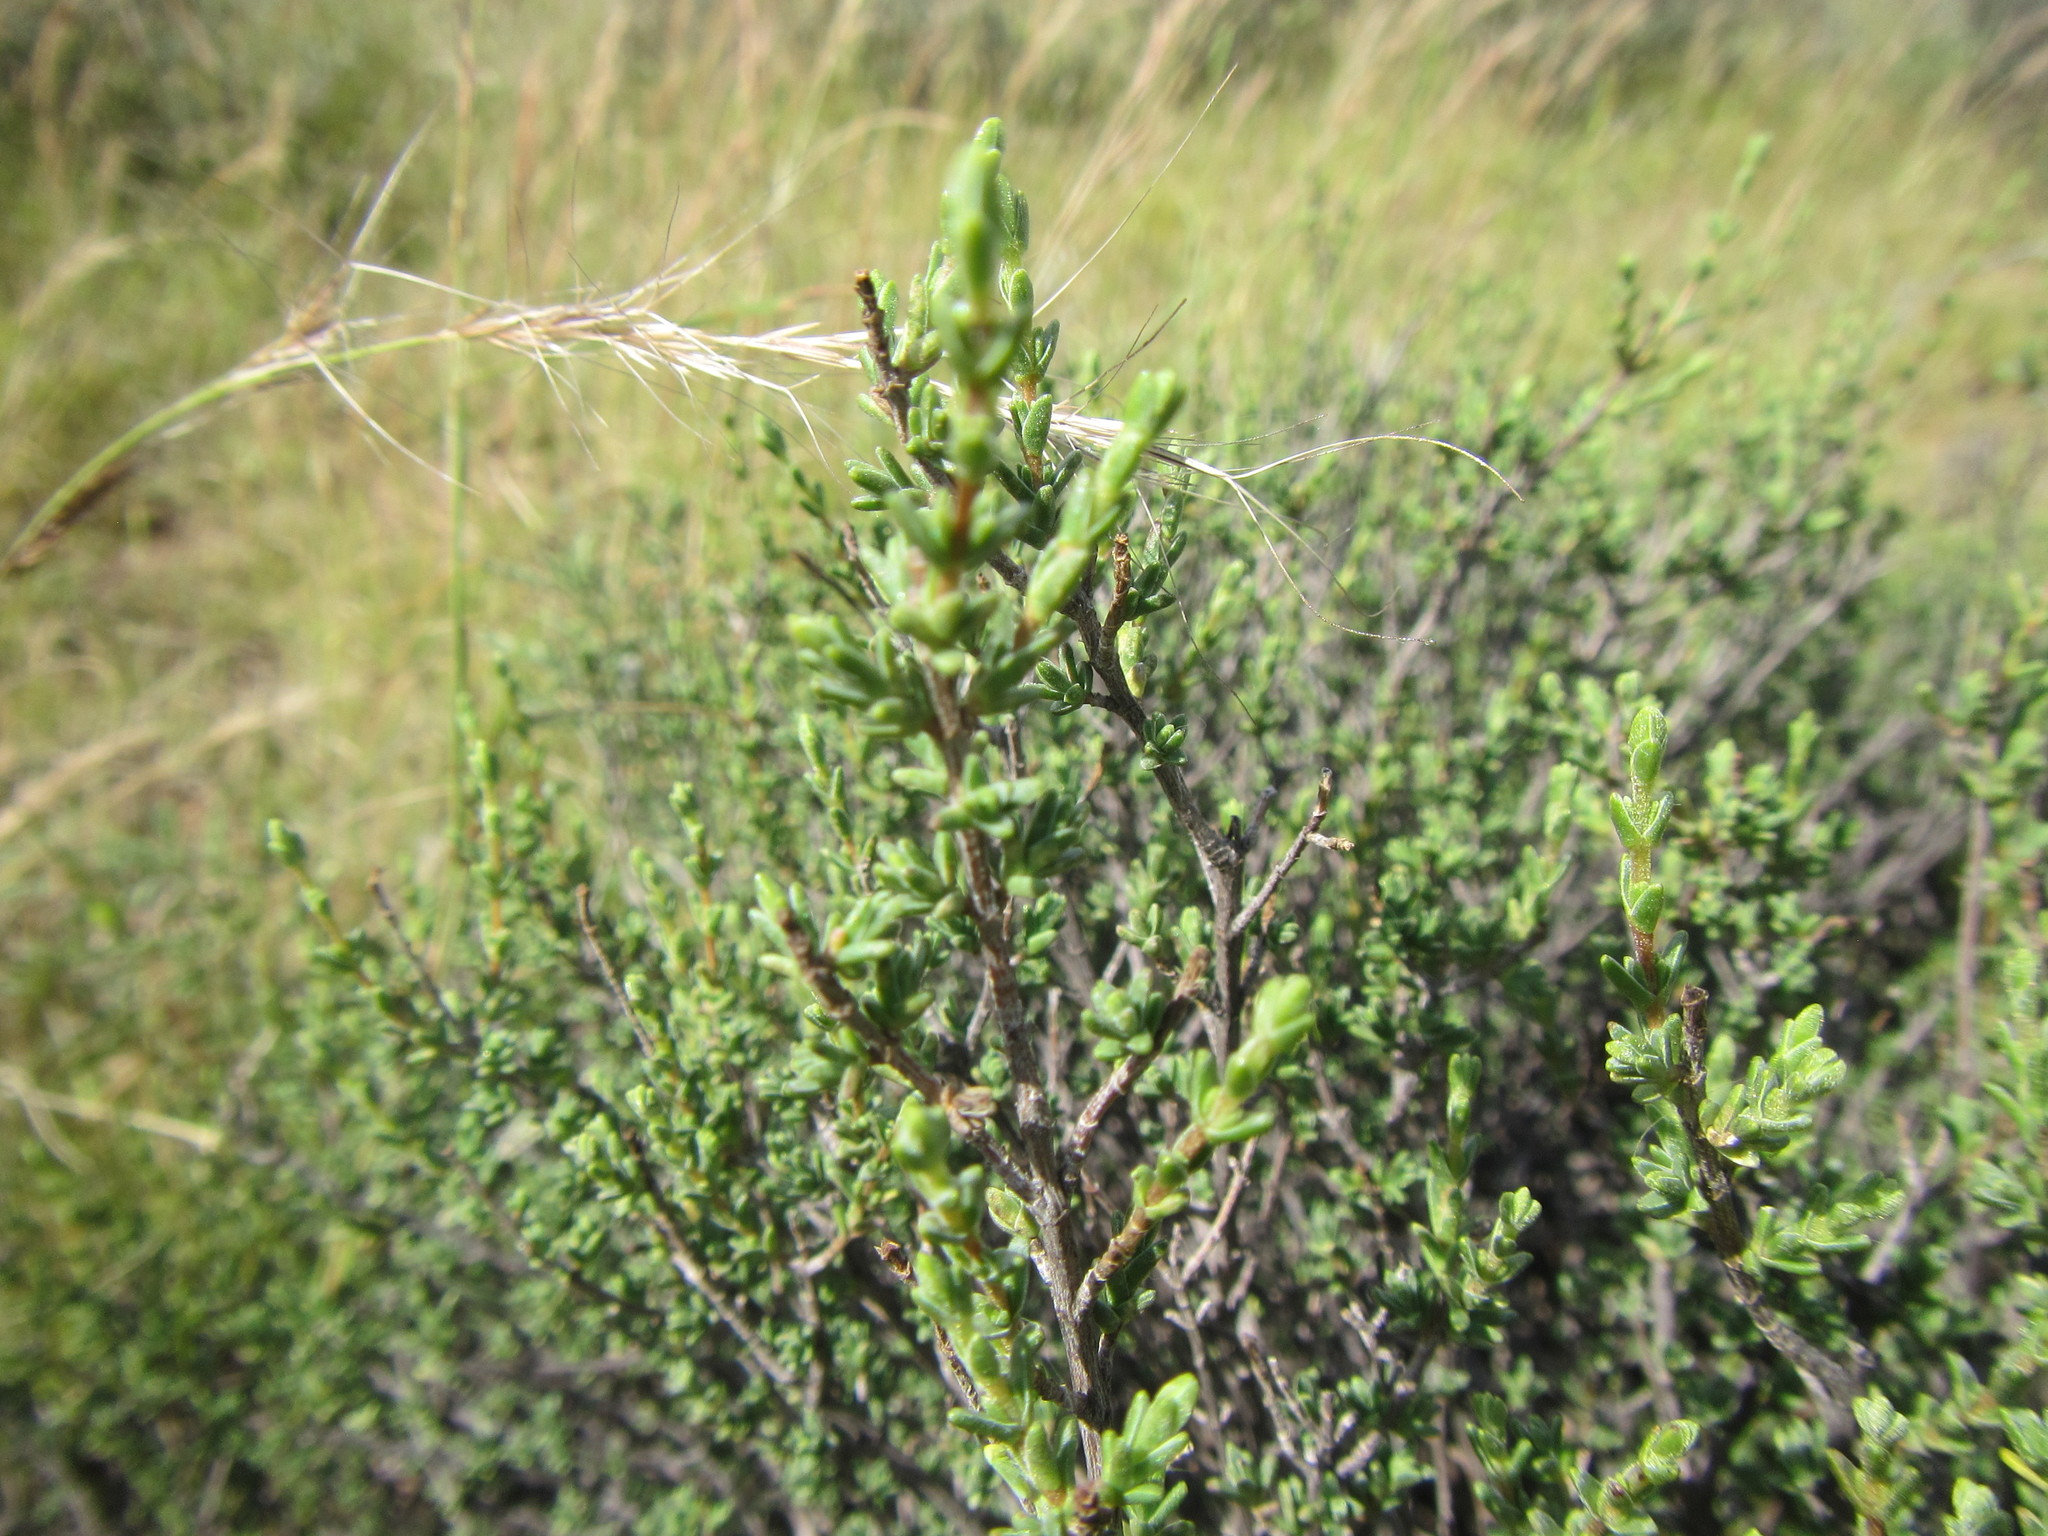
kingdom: Plantae
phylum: Tracheophyta
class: Magnoliopsida
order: Asterales
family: Asteraceae
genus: Pteronia
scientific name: Pteronia glomerata
